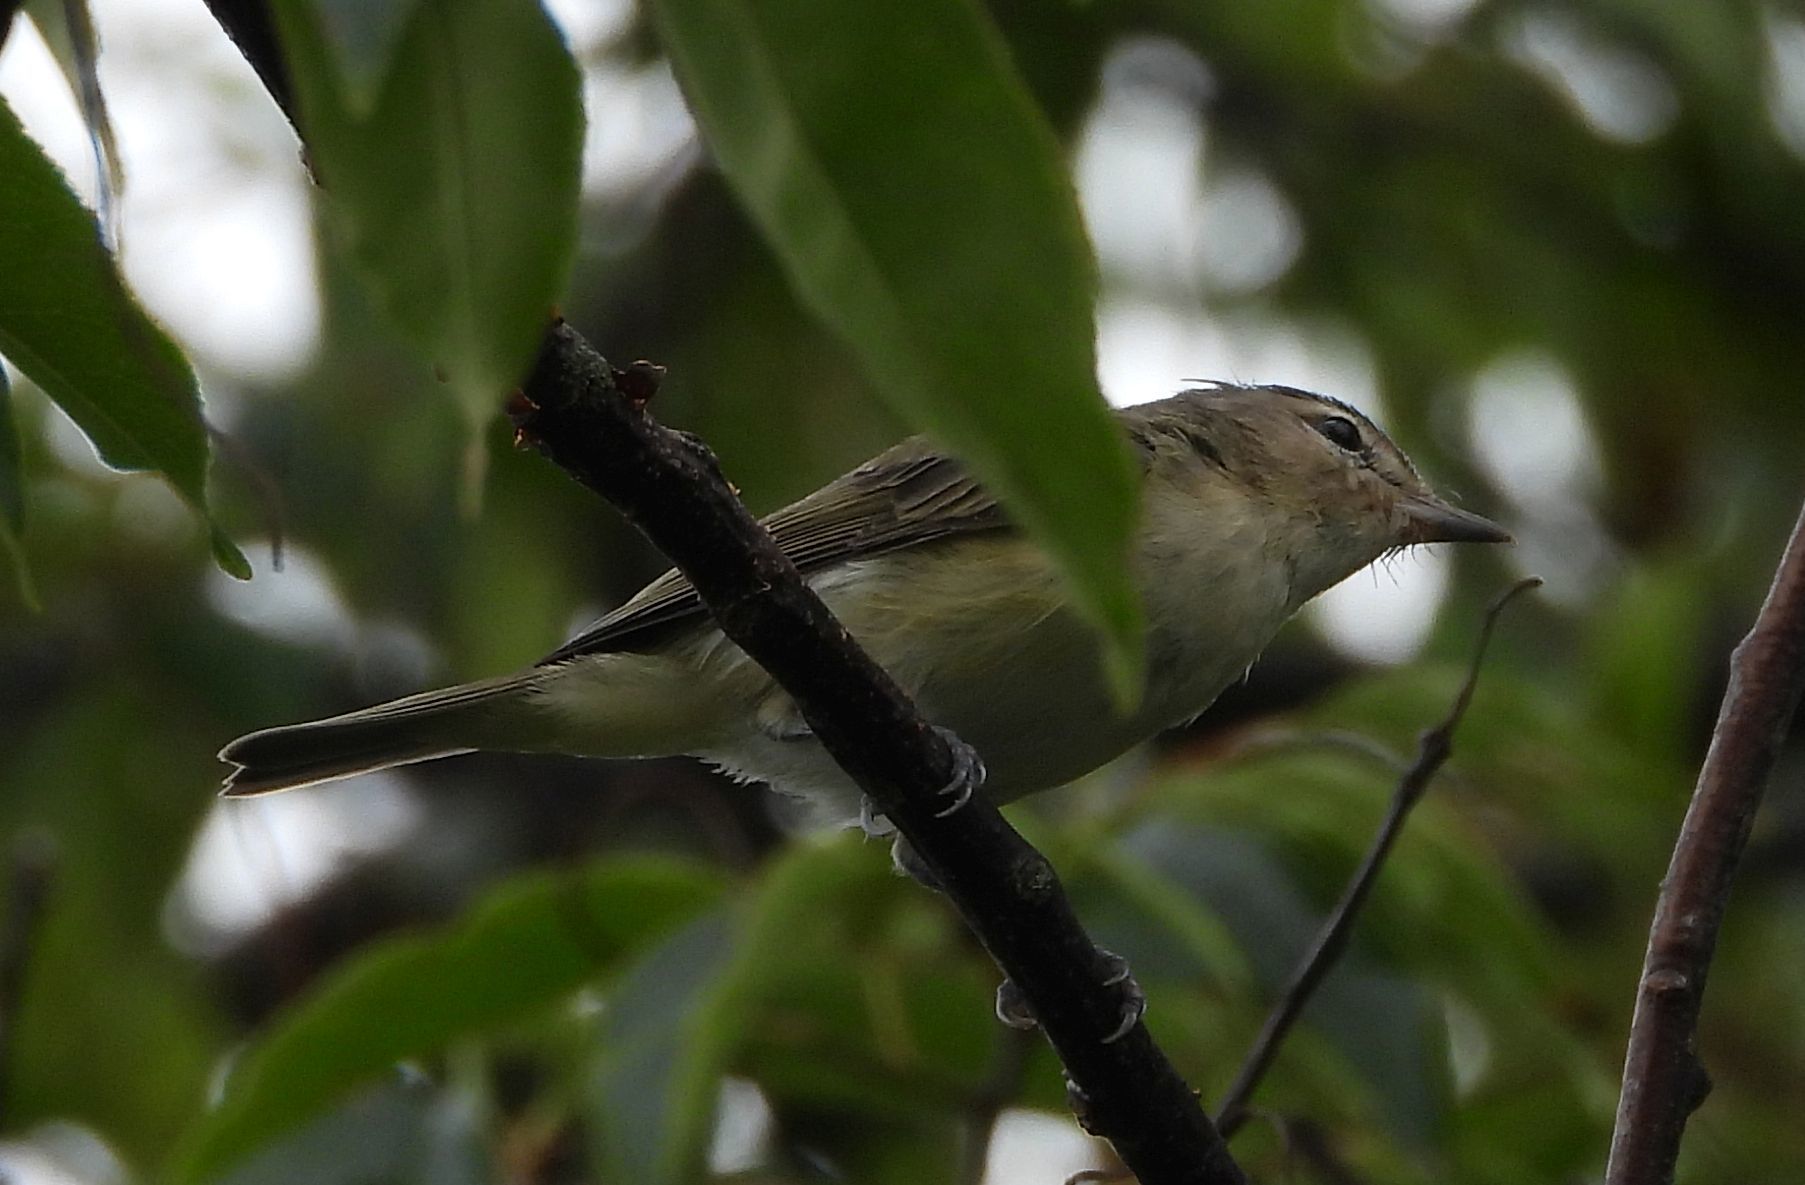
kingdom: Animalia
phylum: Chordata
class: Aves
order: Passeriformes
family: Vireonidae
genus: Vireo
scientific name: Vireo gilvus
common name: Warbling vireo
